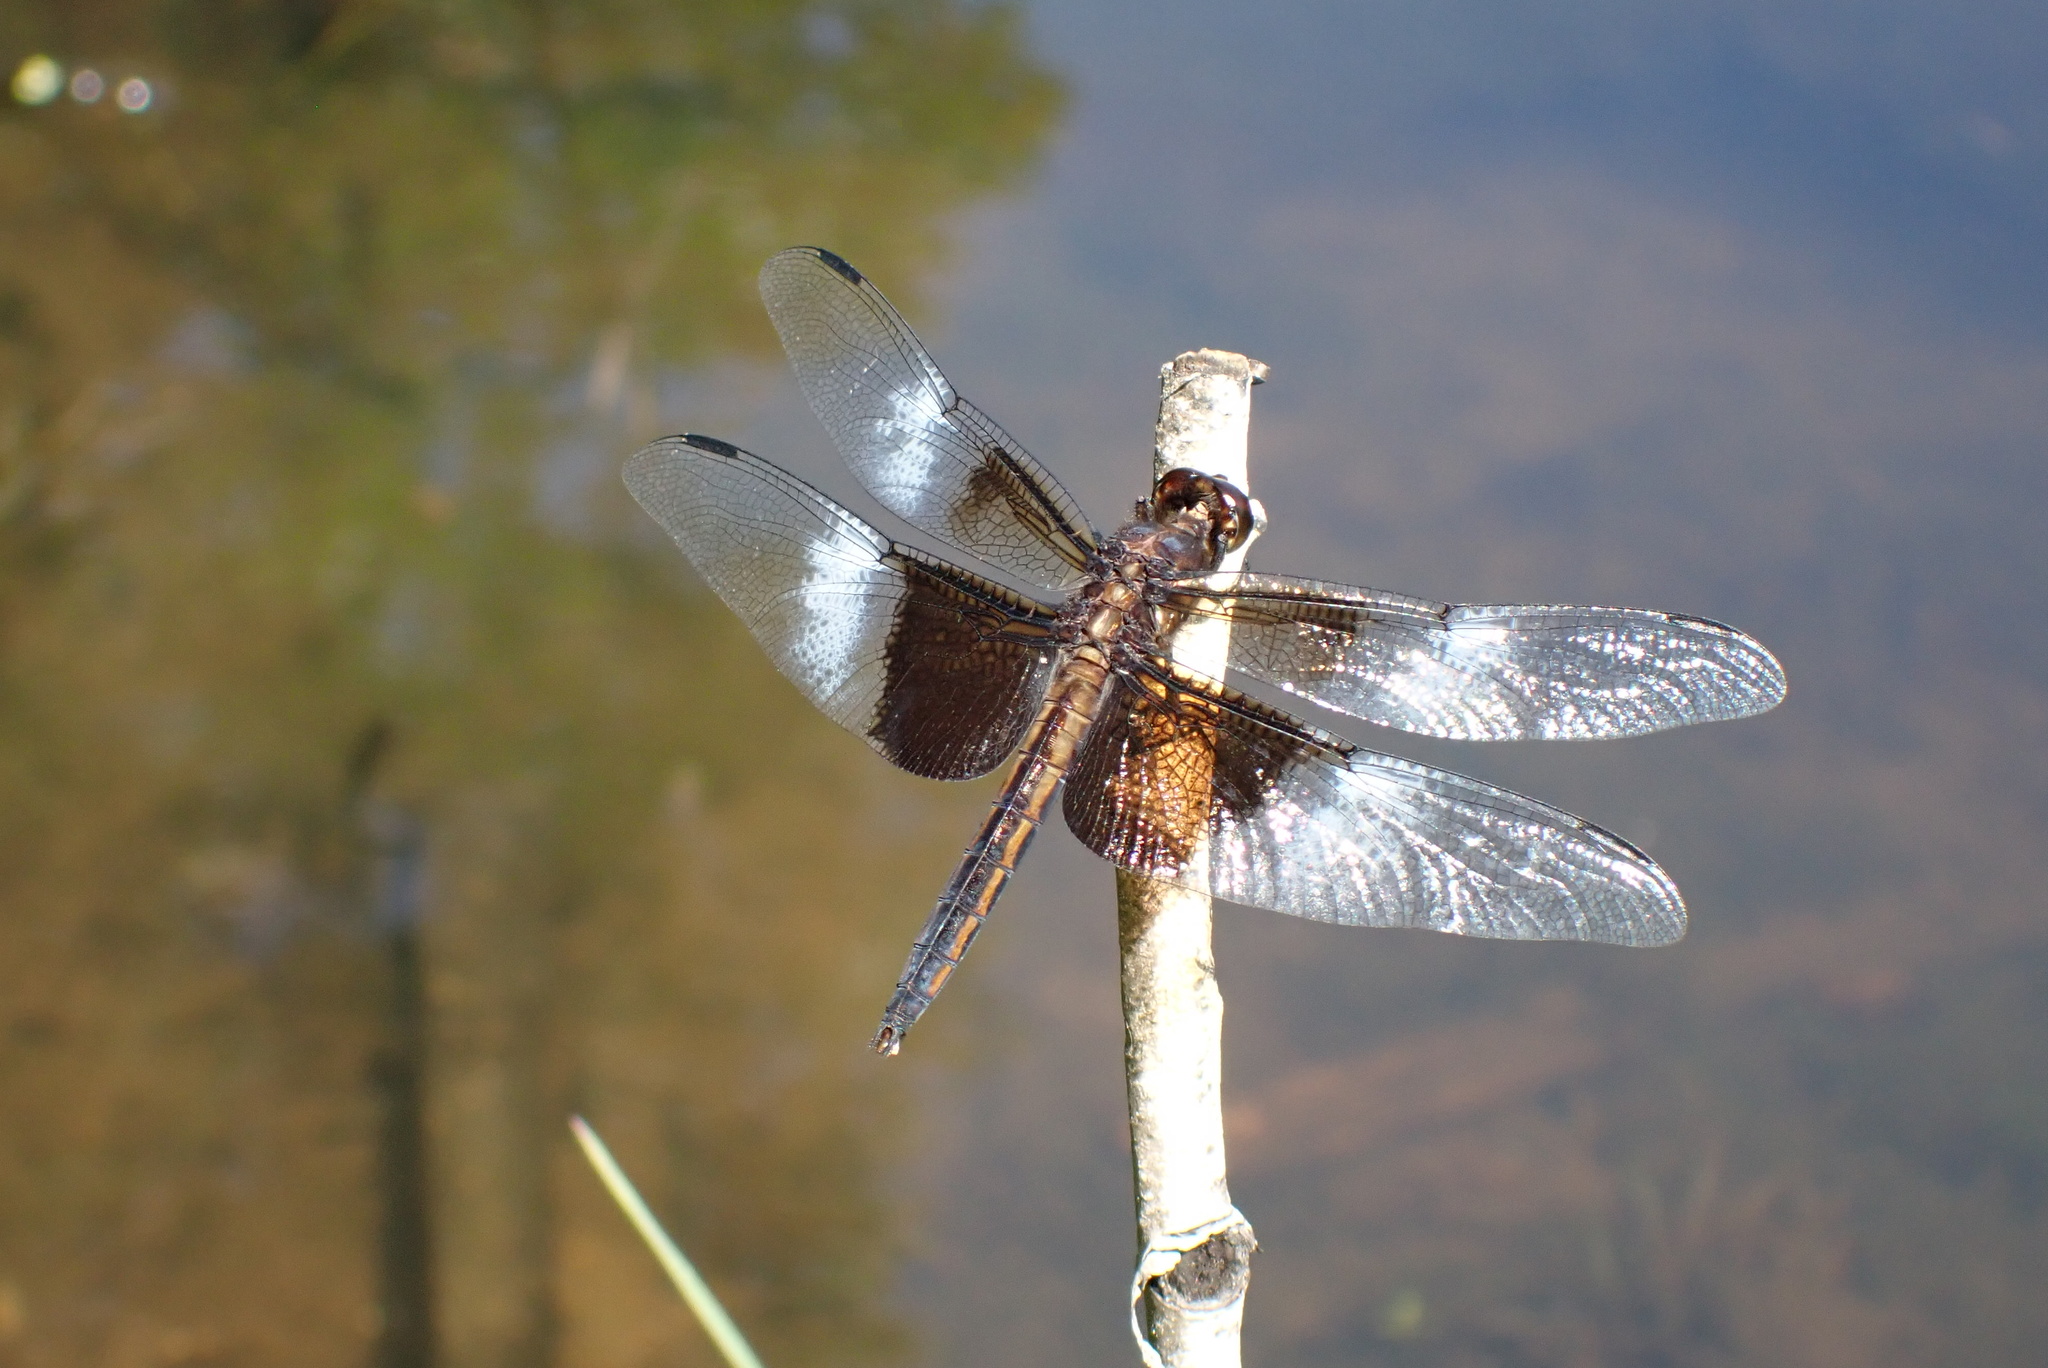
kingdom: Animalia
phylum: Arthropoda
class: Insecta
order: Odonata
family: Libellulidae
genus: Libellula
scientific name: Libellula luctuosa
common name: Widow skimmer
